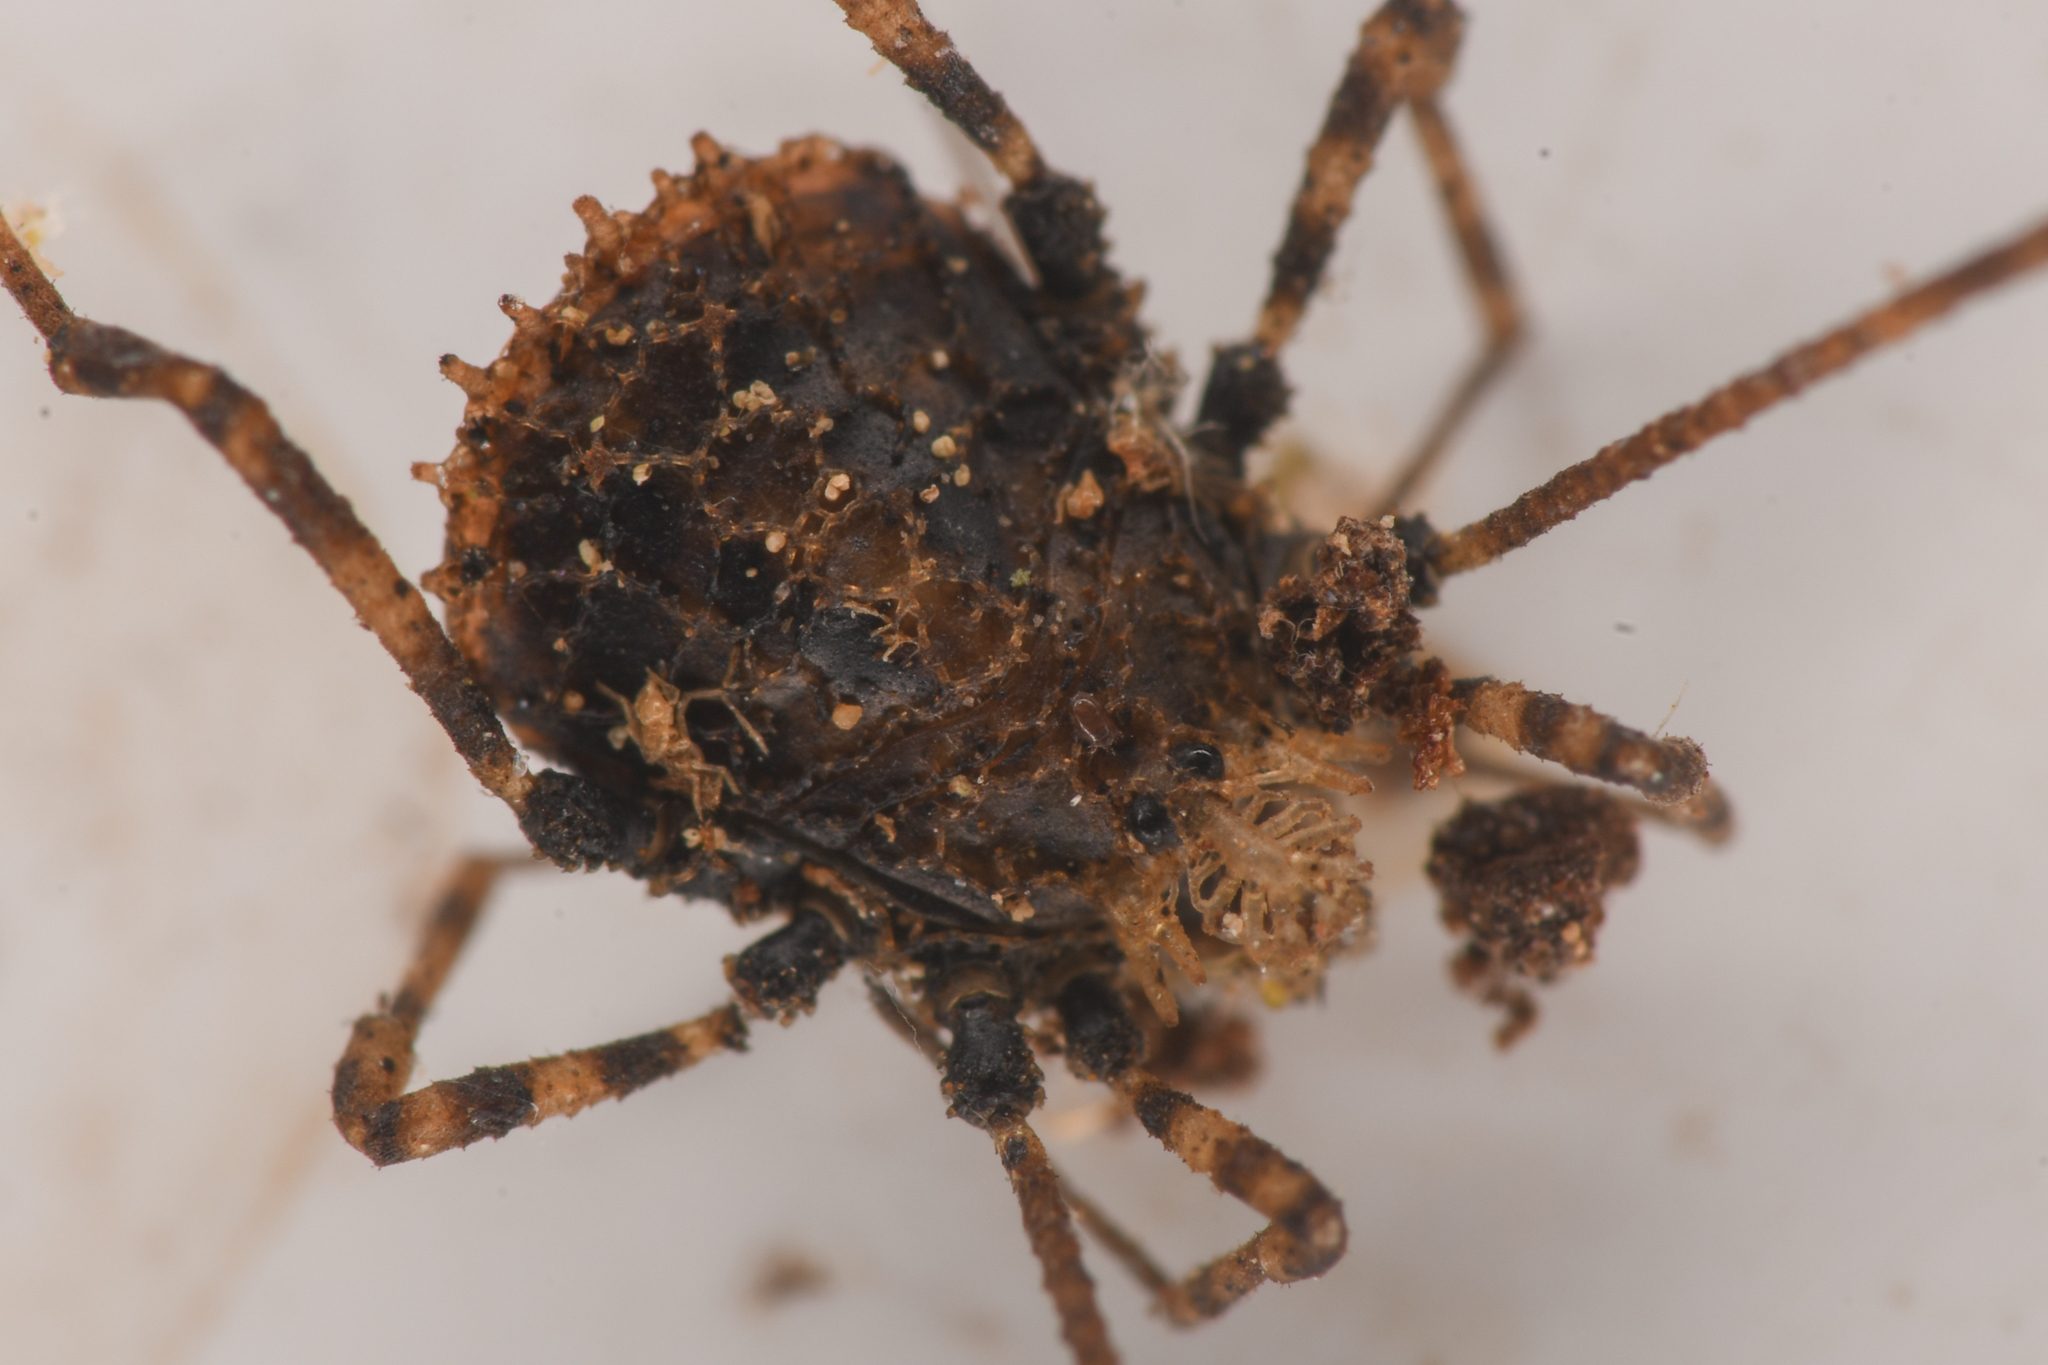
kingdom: Animalia
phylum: Arthropoda
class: Arachnida
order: Opiliones
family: Nemastomatidae
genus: Ortholasma
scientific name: Ortholasma pictipes
